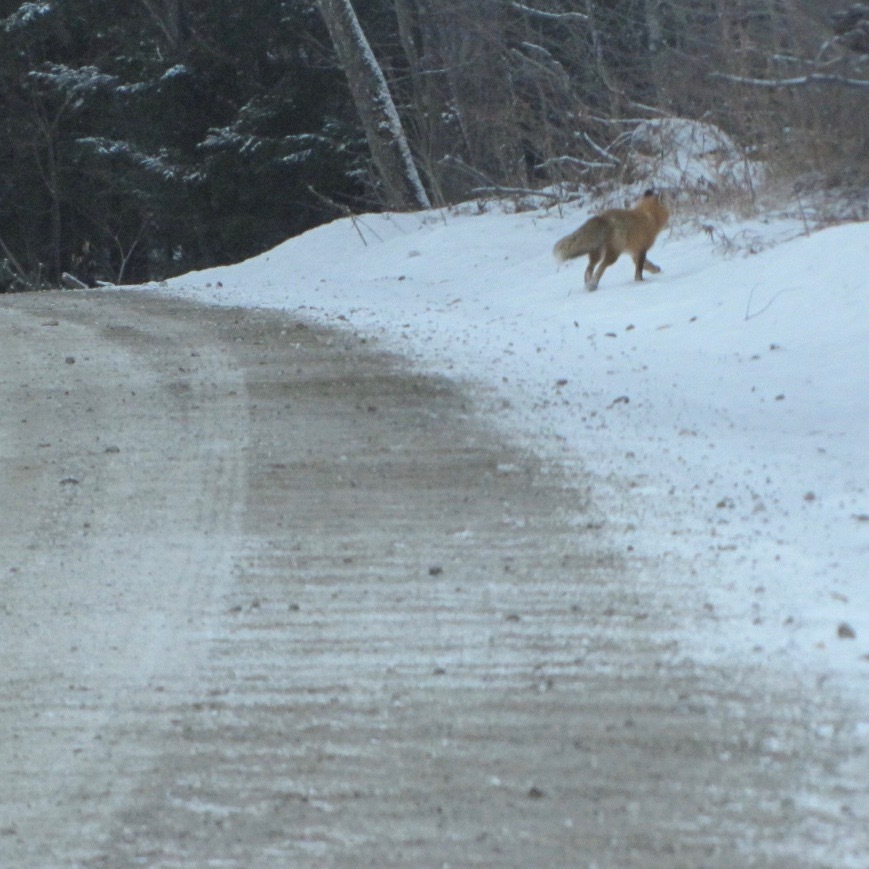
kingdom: Animalia
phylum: Chordata
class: Mammalia
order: Carnivora
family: Canidae
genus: Vulpes
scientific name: Vulpes vulpes
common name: Red fox
